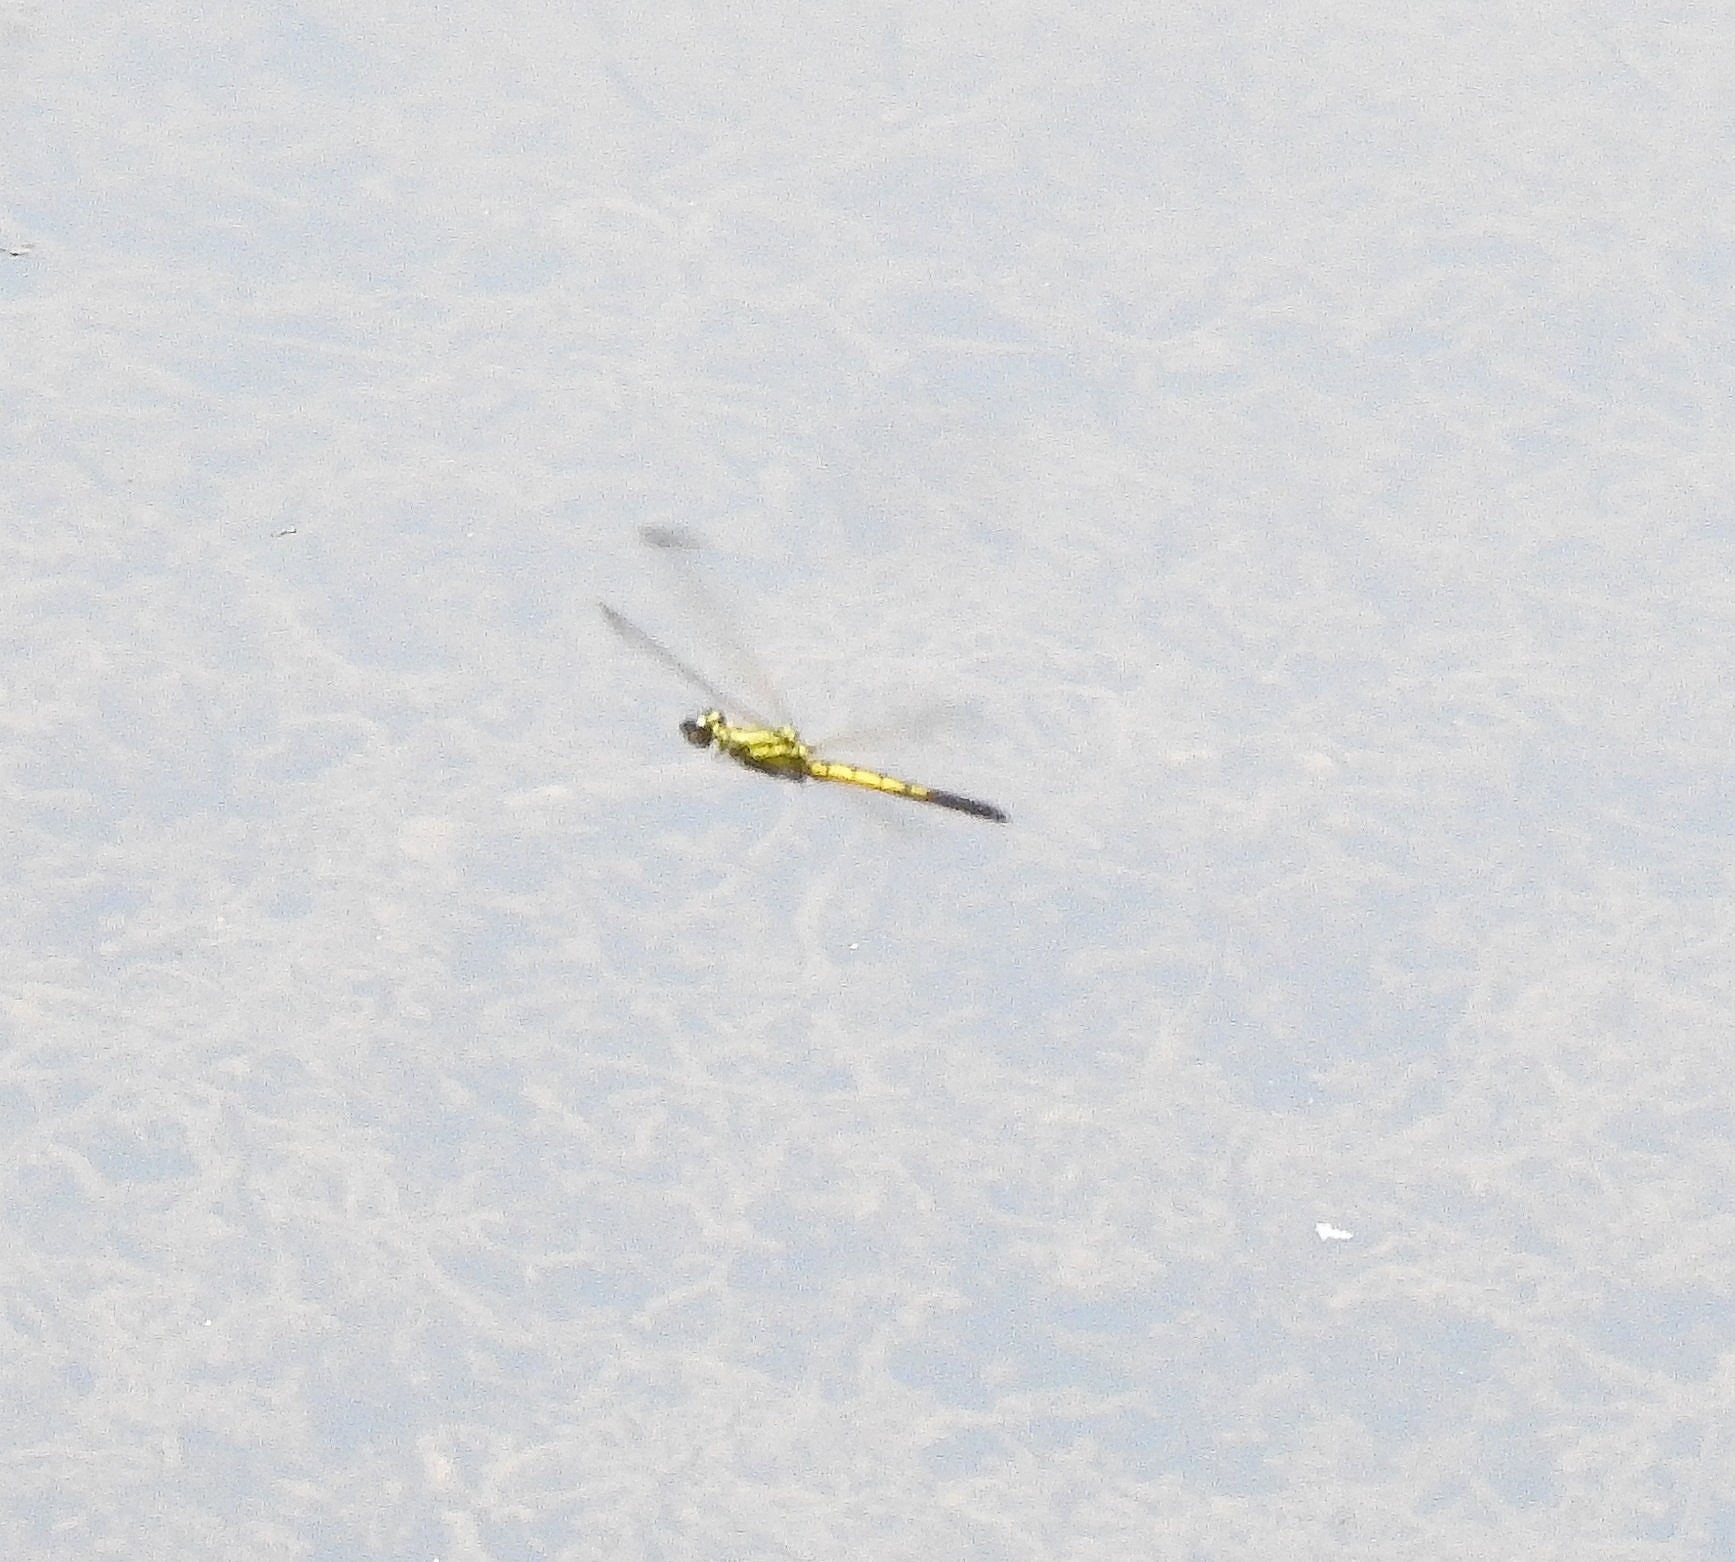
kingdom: Animalia
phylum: Arthropoda
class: Insecta
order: Odonata
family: Chlorocyphidae
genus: Libellago
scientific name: Libellago indica
